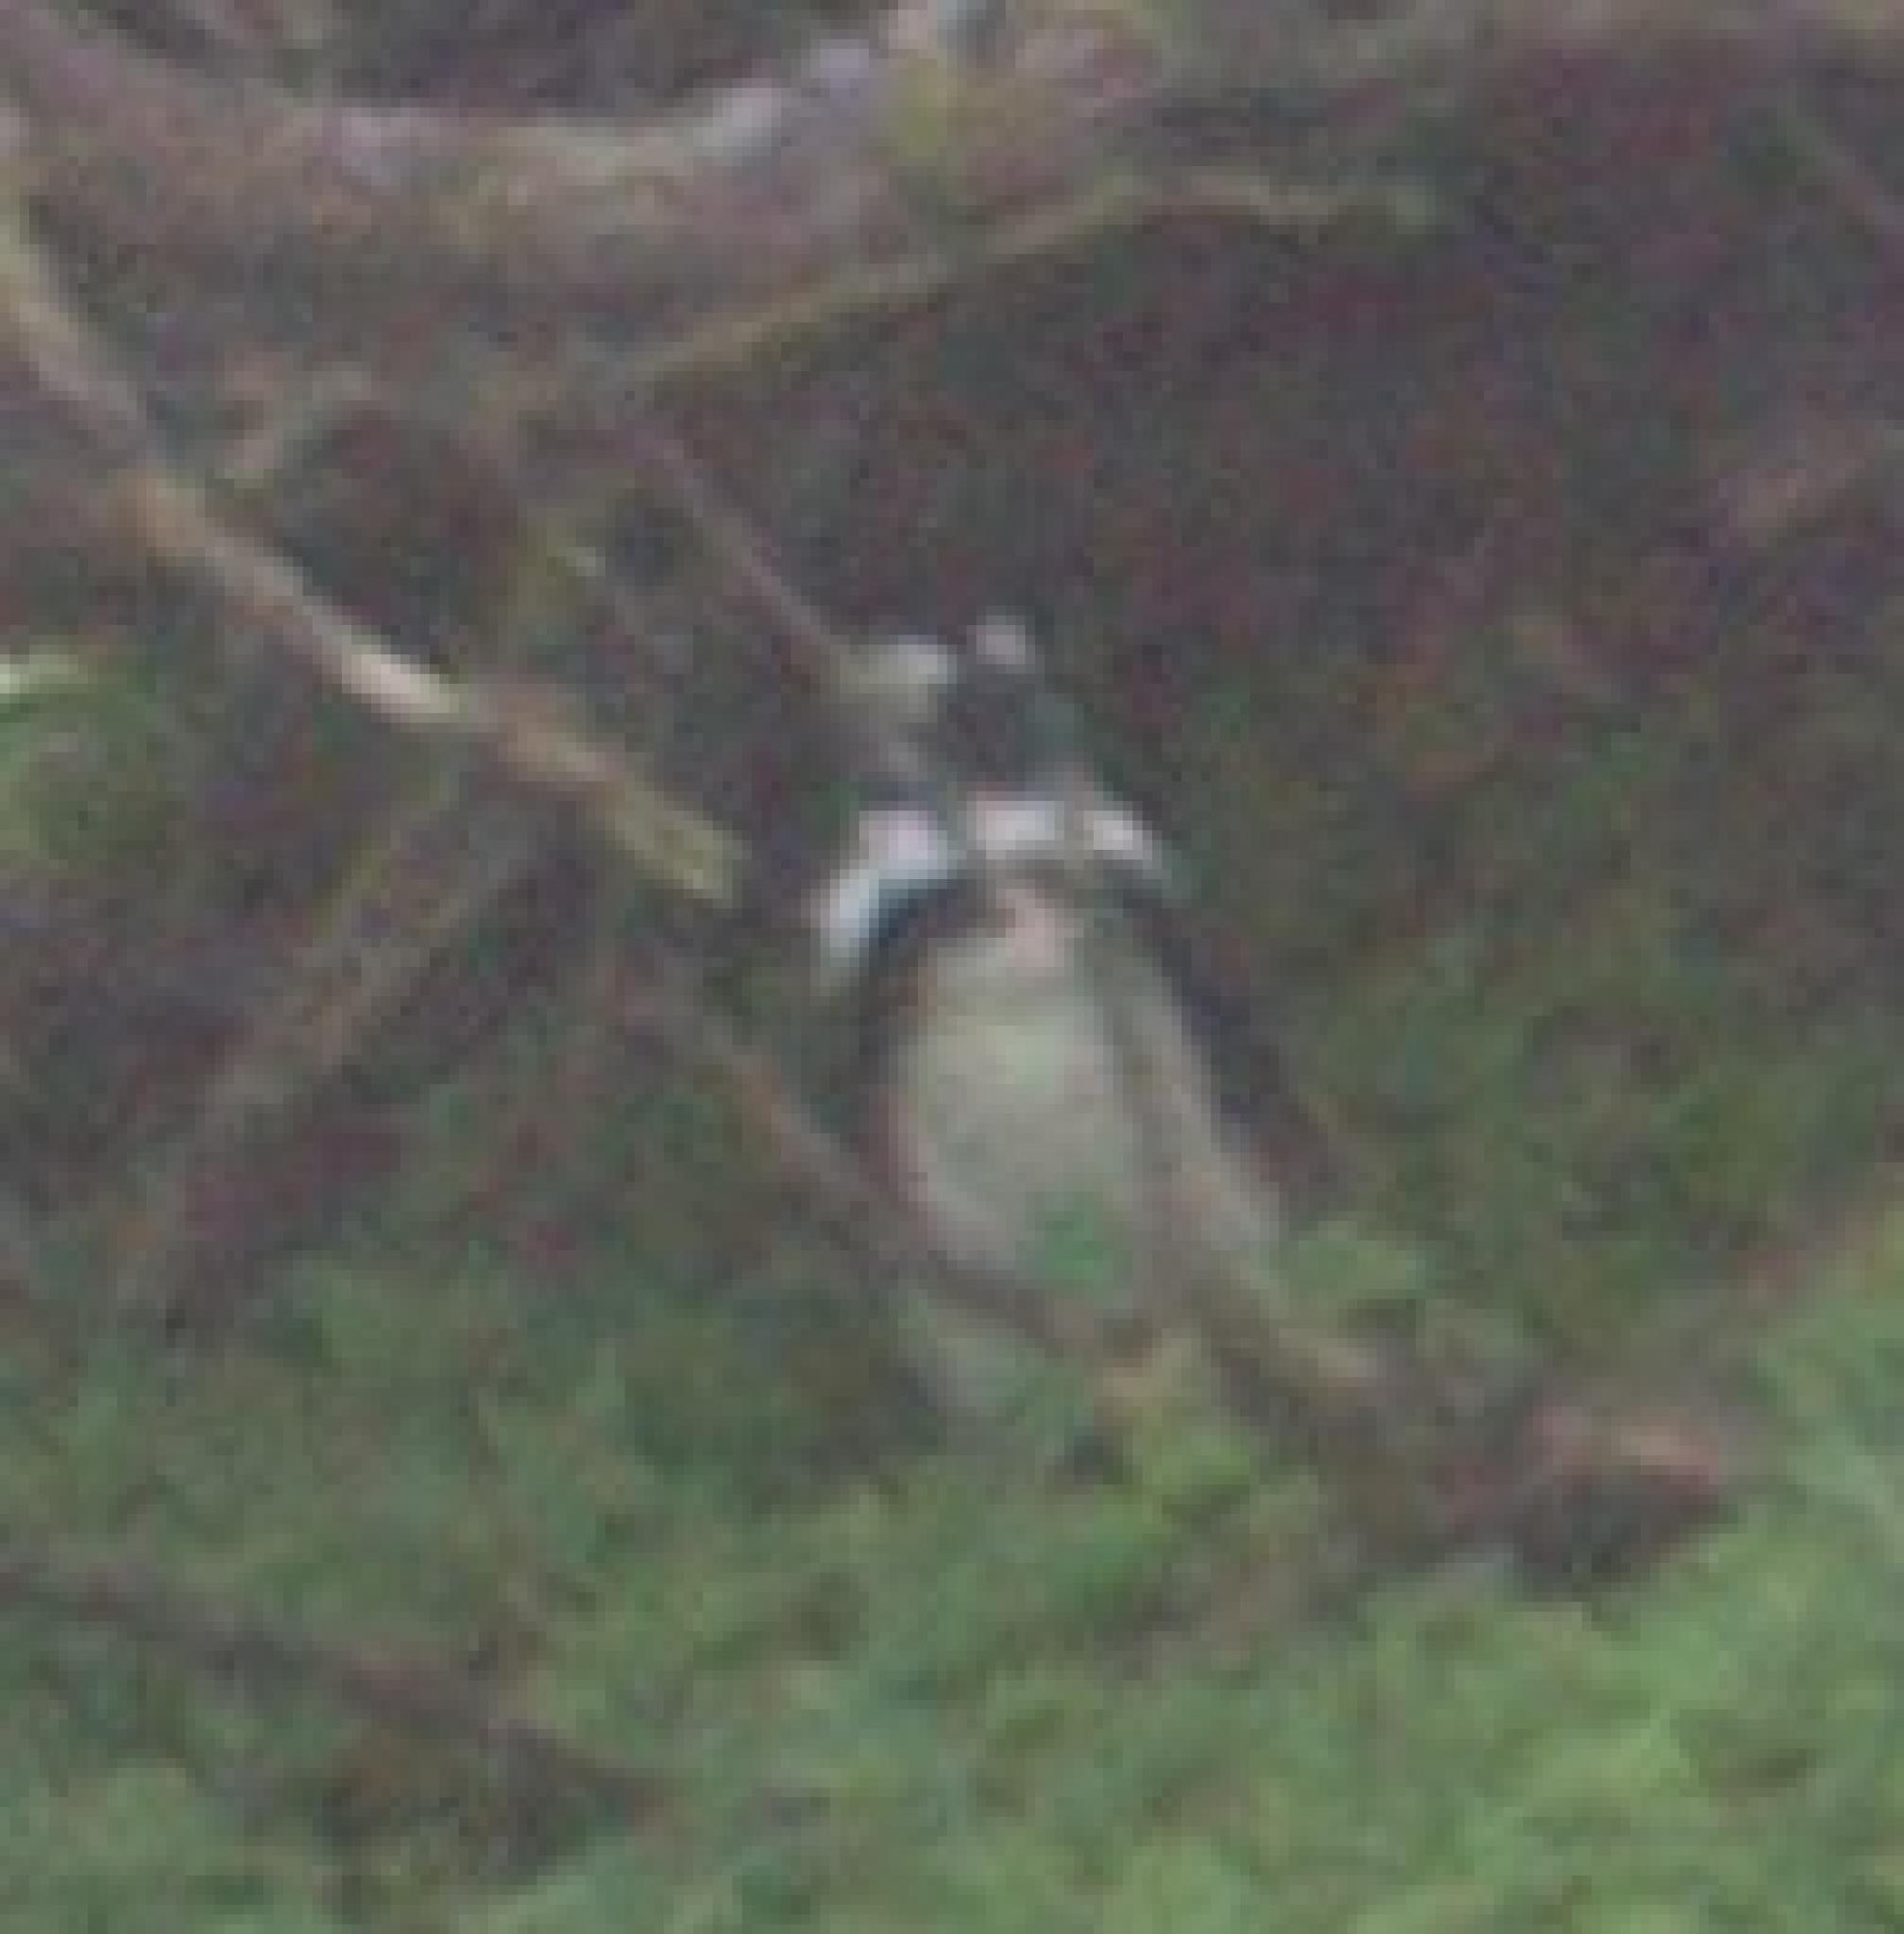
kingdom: Animalia
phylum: Chordata
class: Aves
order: Sphenisciformes
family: Spheniscidae
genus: Spheniscus
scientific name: Spheniscus demersus
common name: African penguin
